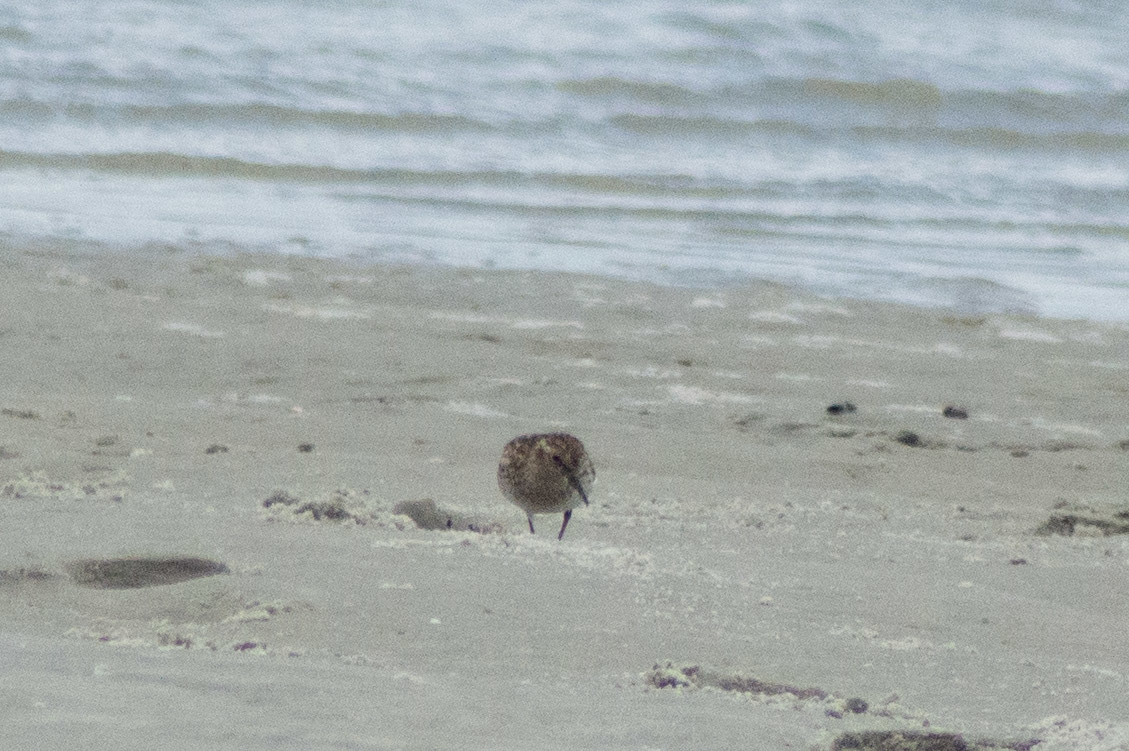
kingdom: Animalia
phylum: Chordata
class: Aves
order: Charadriiformes
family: Scolopacidae
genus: Calidris
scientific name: Calidris minutilla
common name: Least sandpiper
